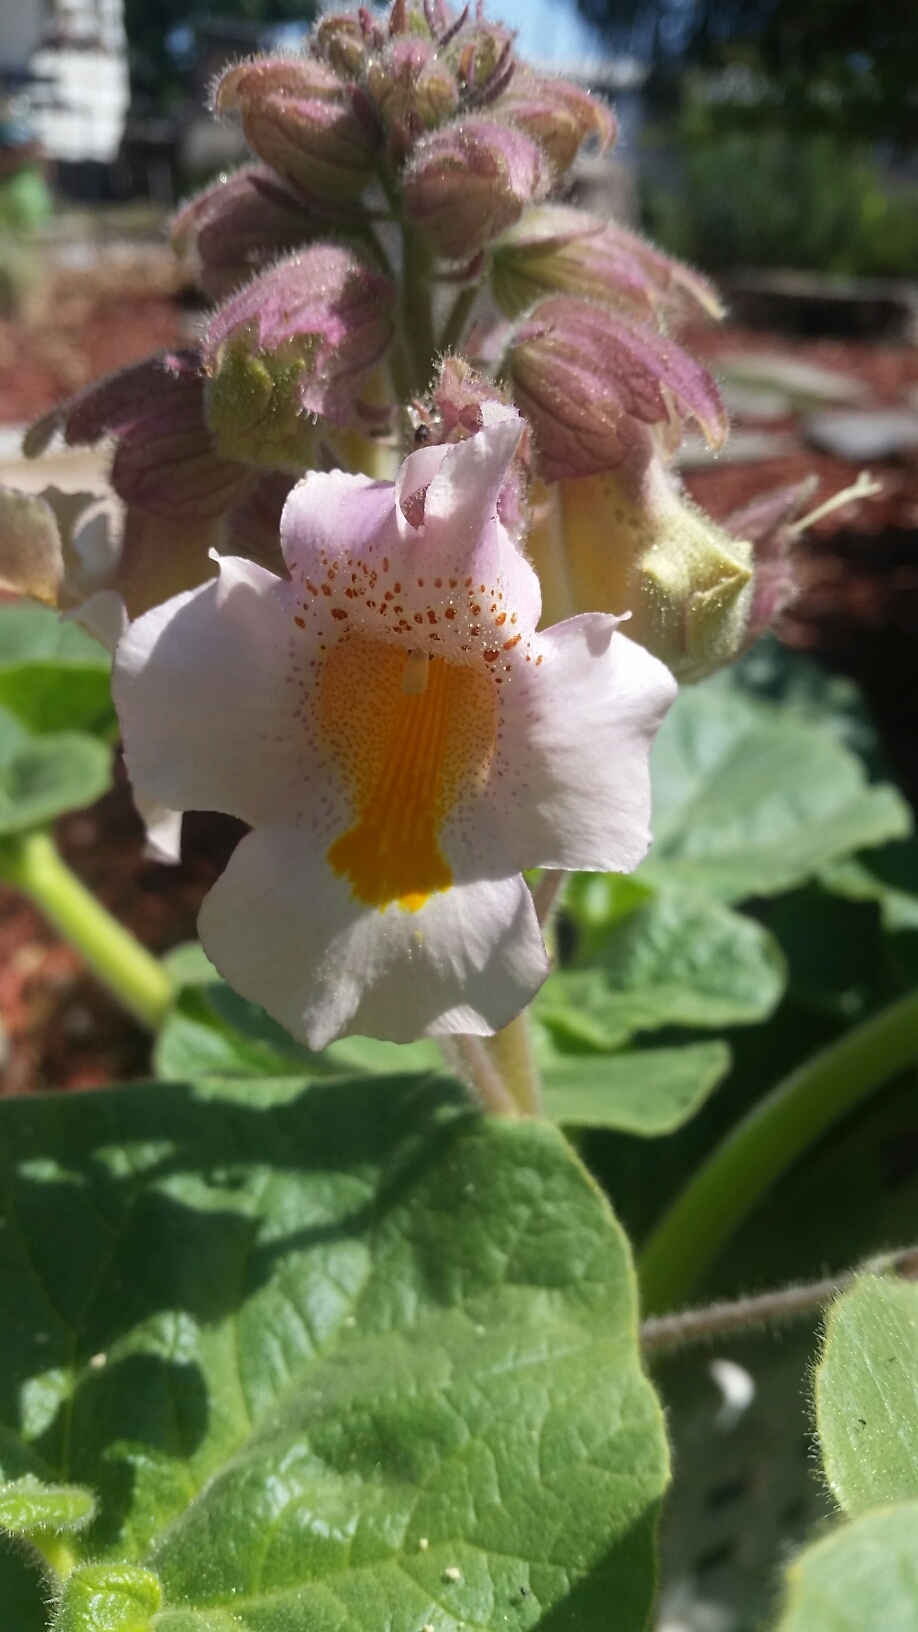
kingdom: Plantae
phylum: Tracheophyta
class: Magnoliopsida
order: Lamiales
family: Martyniaceae
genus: Proboscidea
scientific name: Proboscidea louisianica
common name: Elephant tusks
